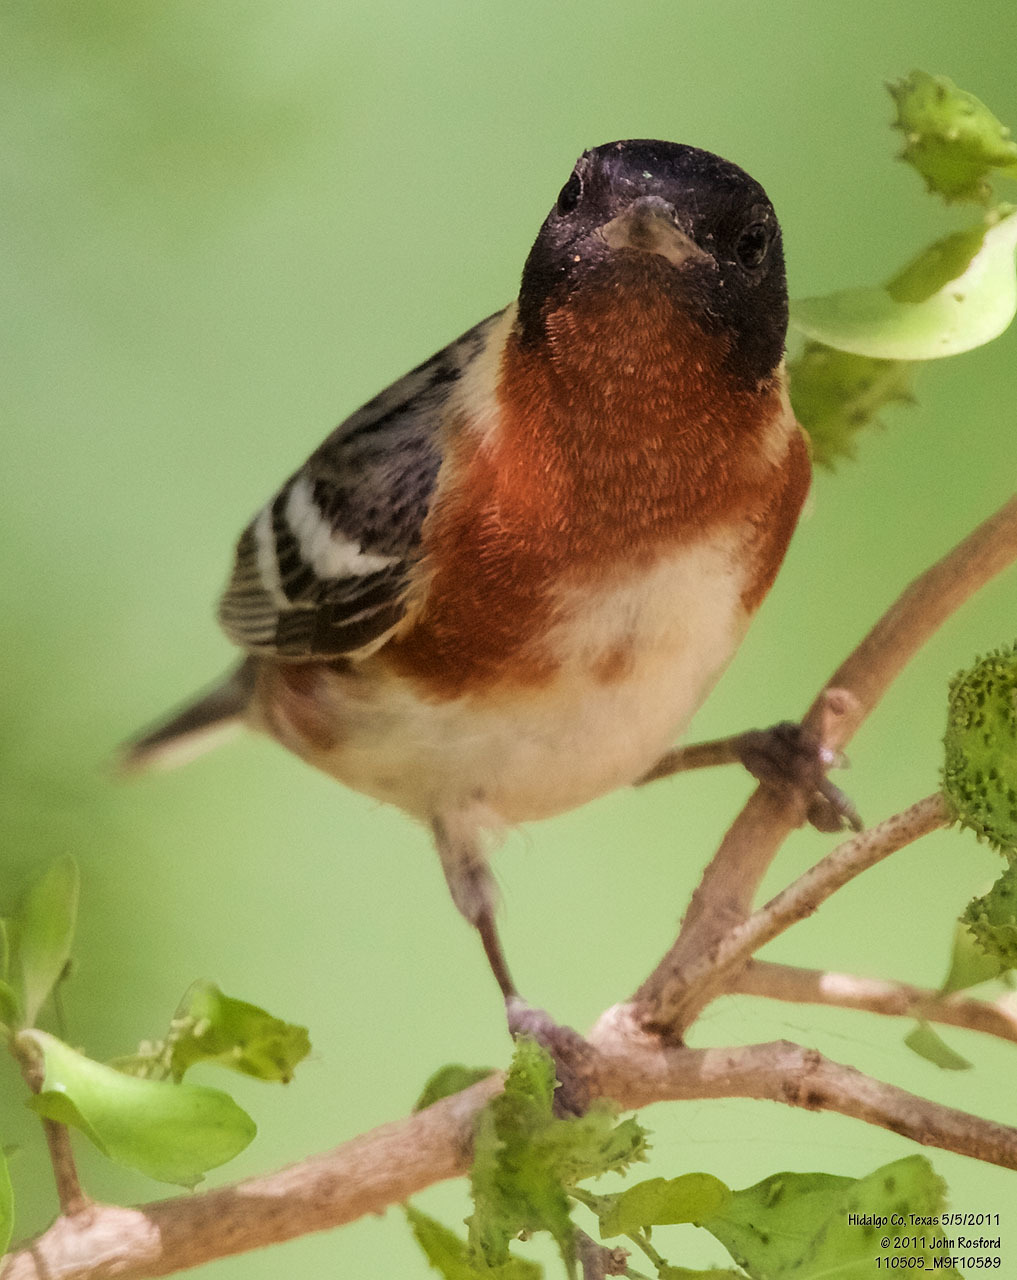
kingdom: Animalia
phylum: Chordata
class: Aves
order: Passeriformes
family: Parulidae
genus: Setophaga
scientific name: Setophaga castanea
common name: Bay-breasted warbler
